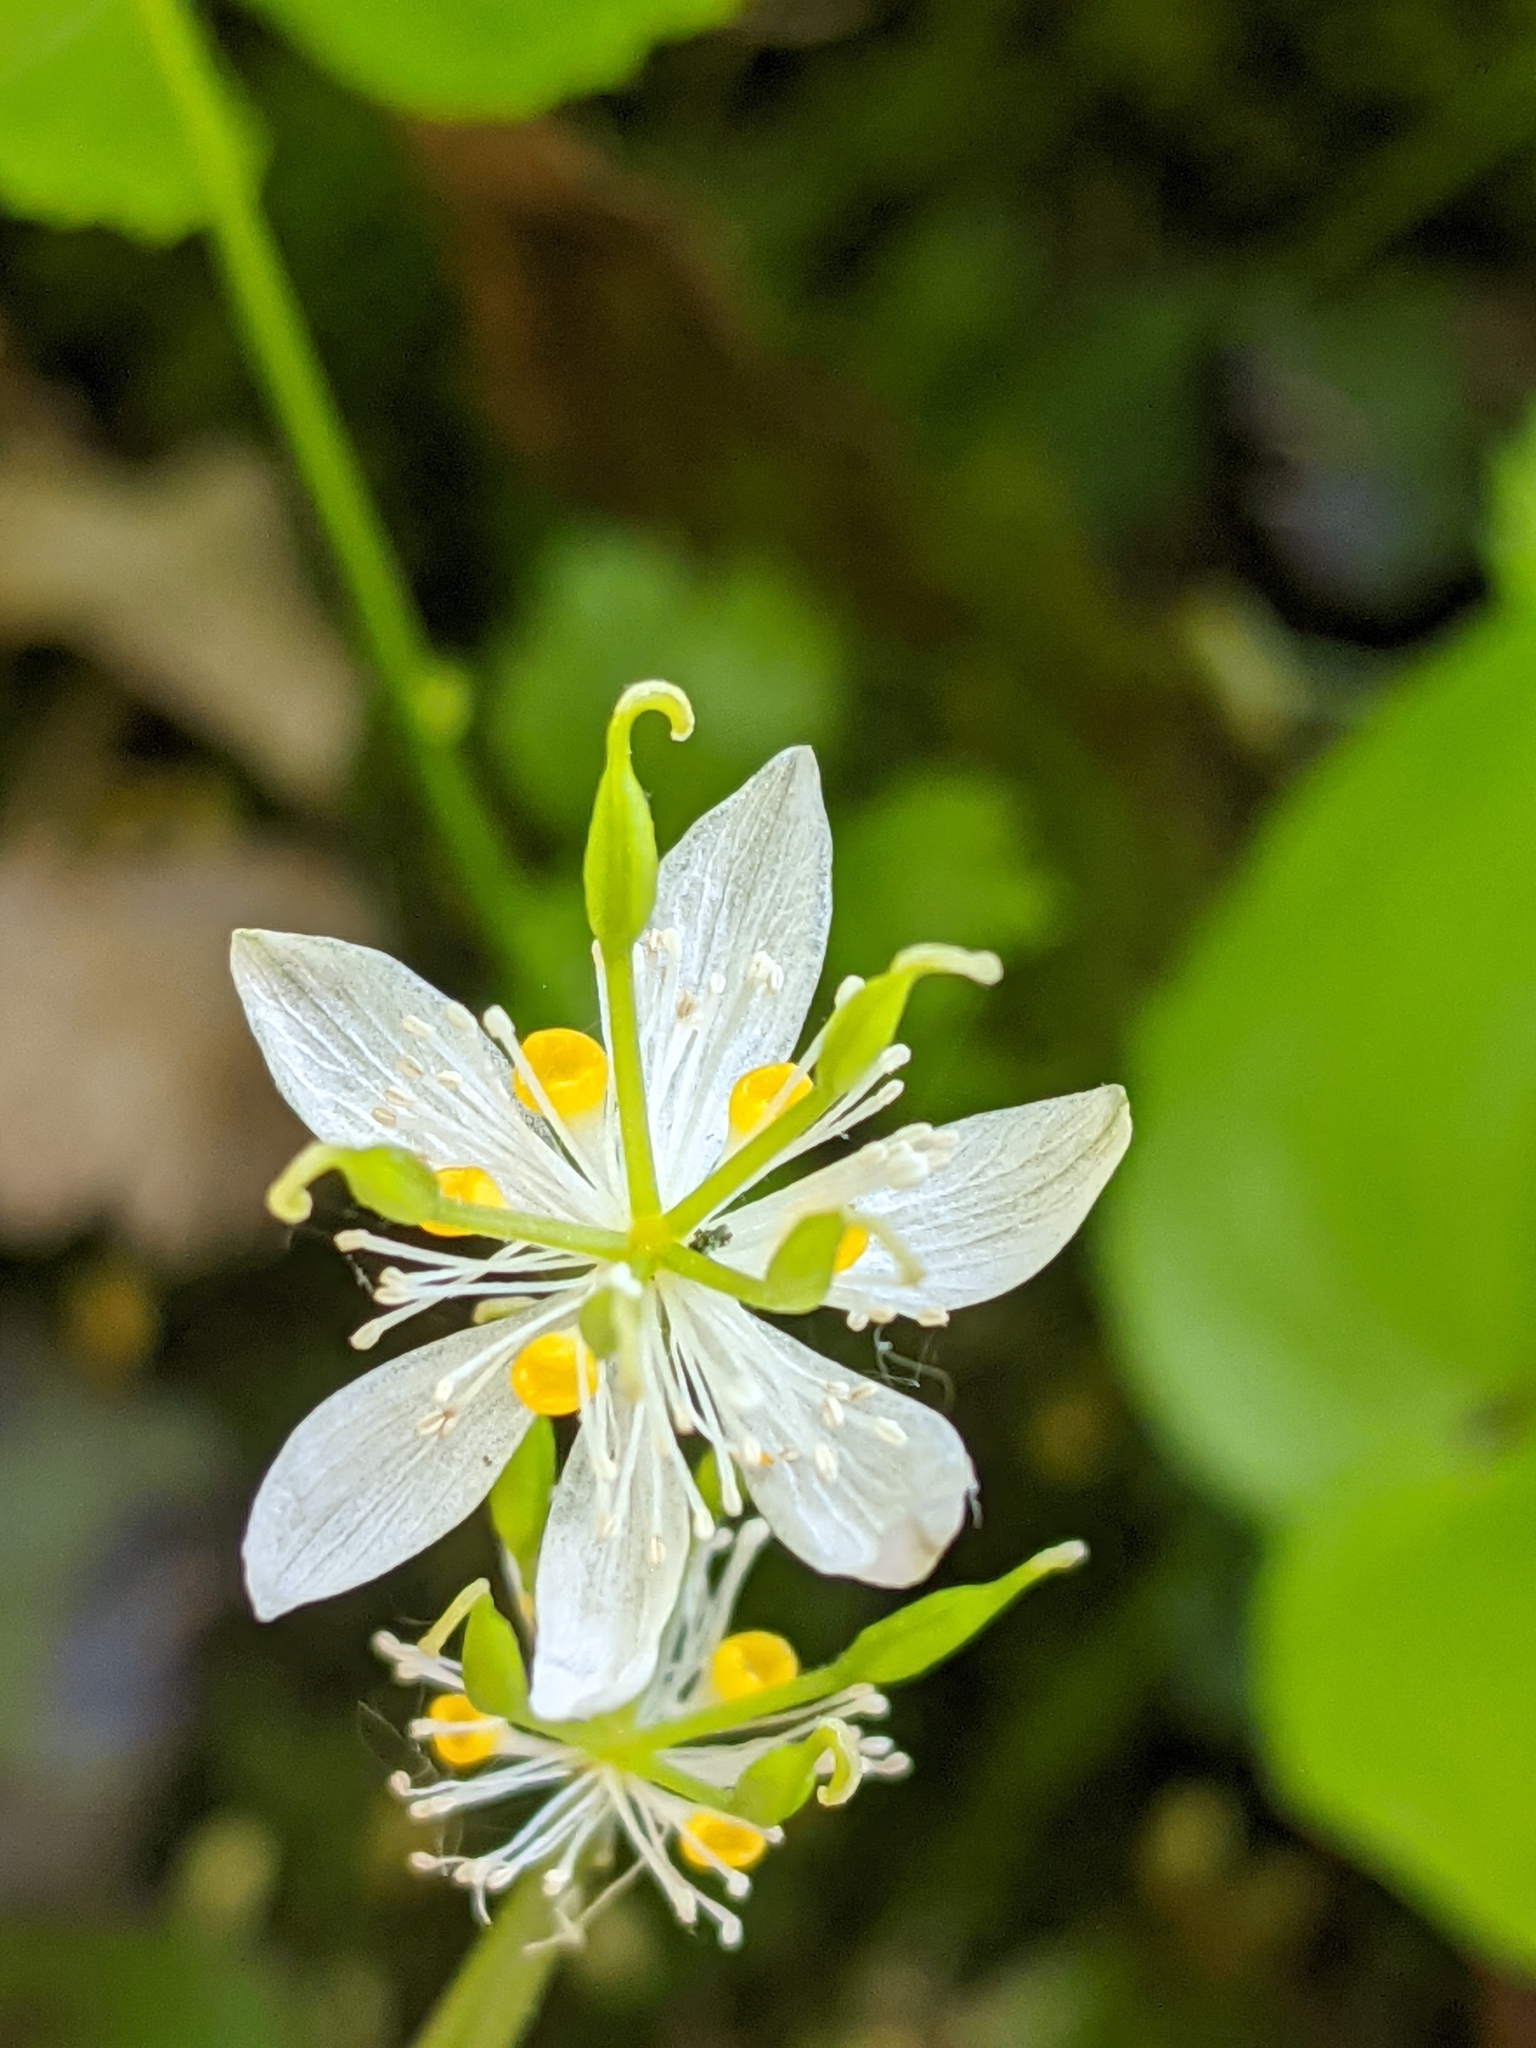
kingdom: Plantae
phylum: Tracheophyta
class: Magnoliopsida
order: Ranunculales
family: Ranunculaceae
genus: Coptis
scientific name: Coptis trifolia
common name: Canker-root
